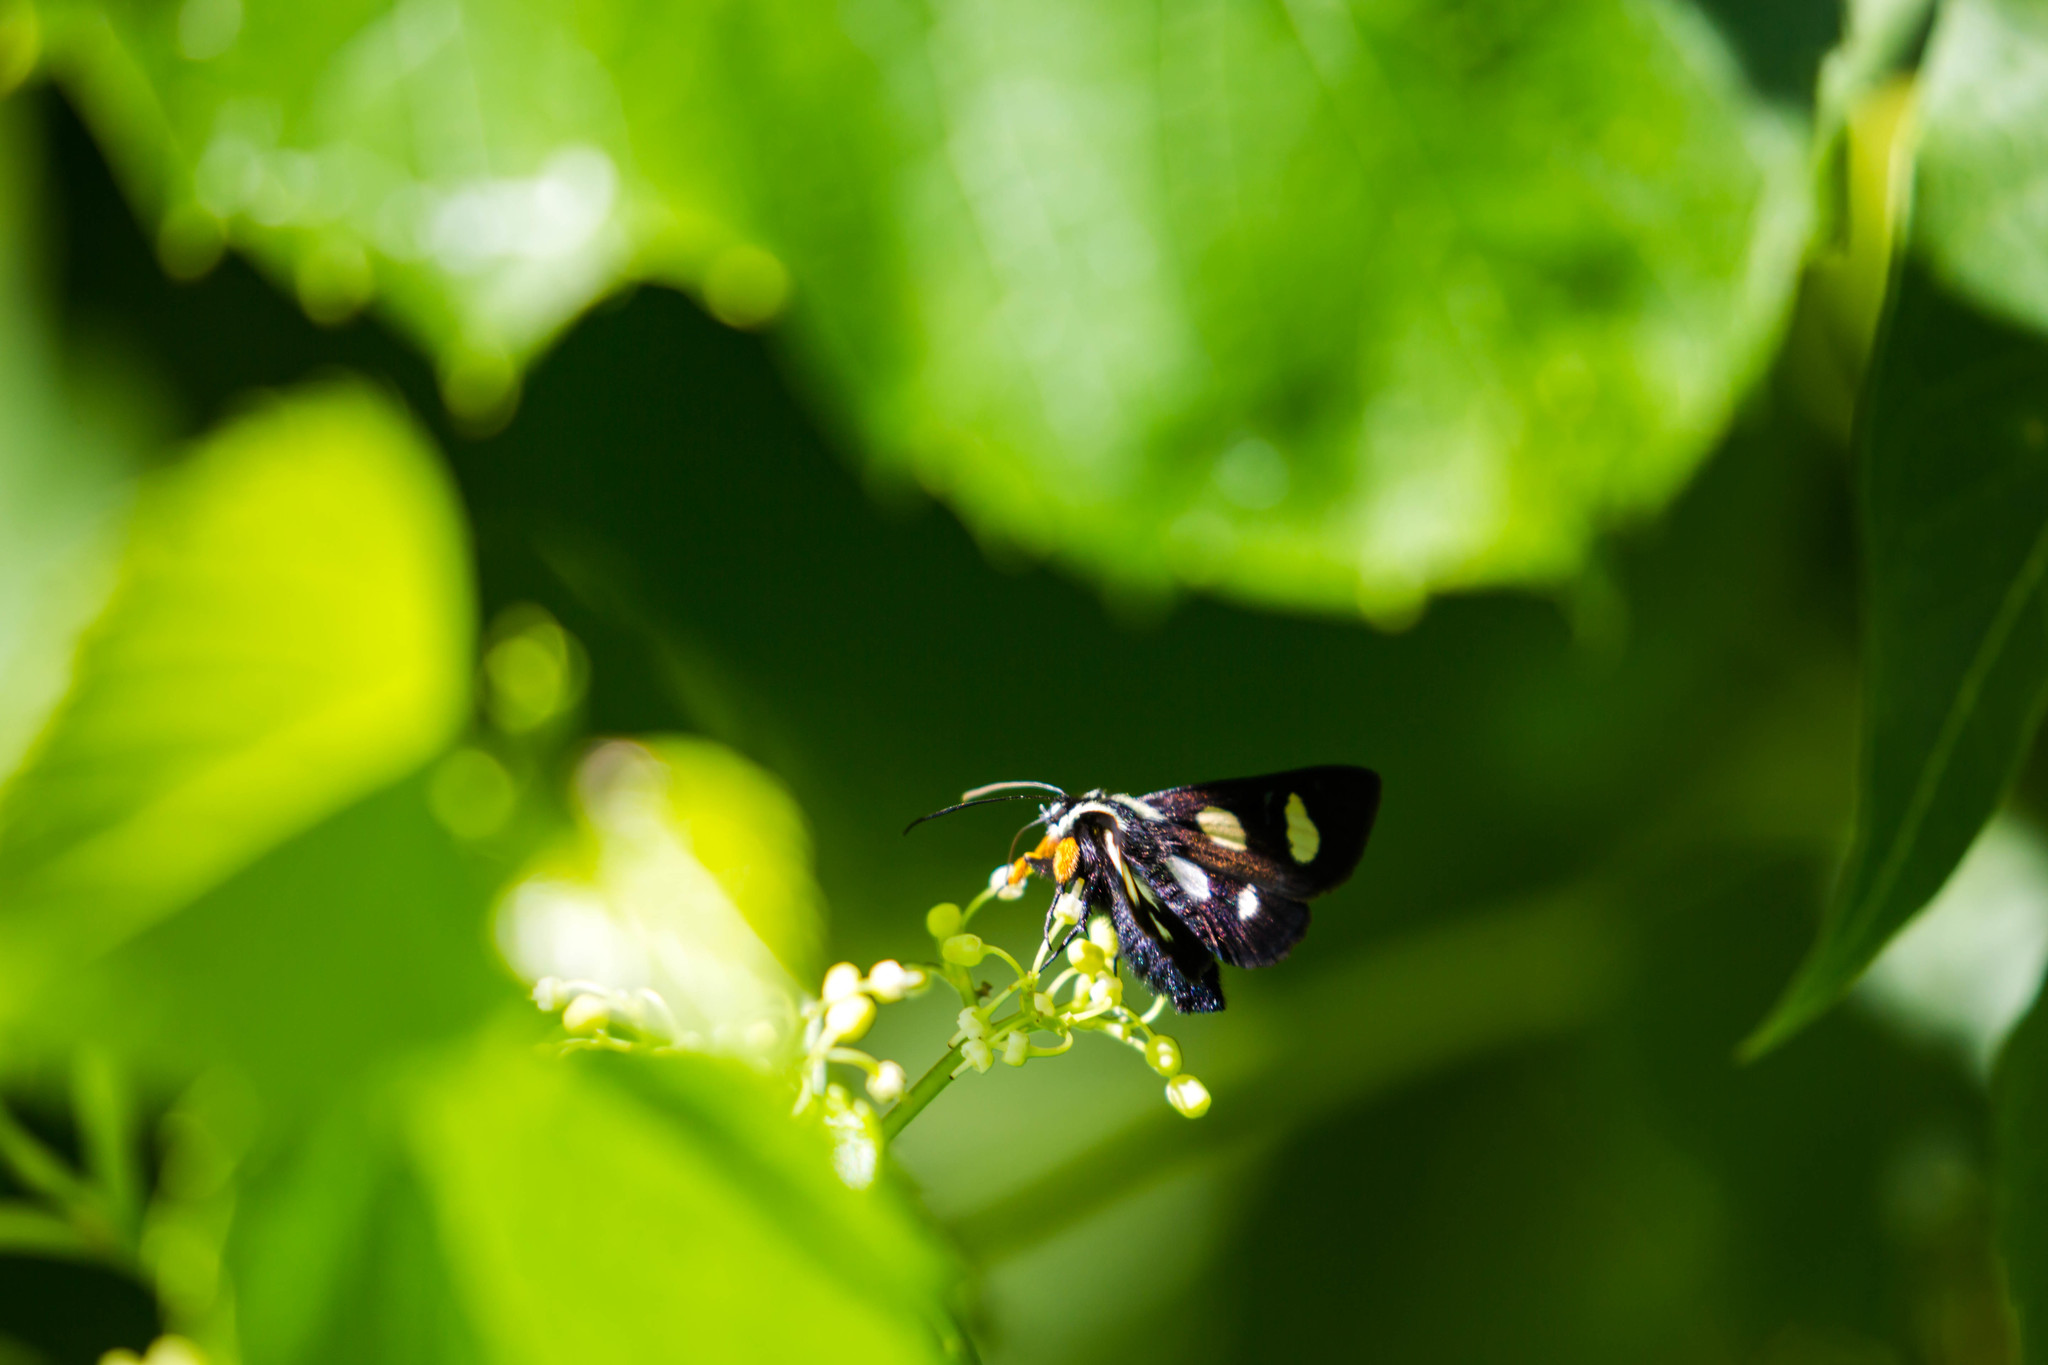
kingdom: Animalia
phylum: Arthropoda
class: Insecta
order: Lepidoptera
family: Noctuidae
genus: Alypia
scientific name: Alypia octomaculata
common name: Eight-spotted forester
